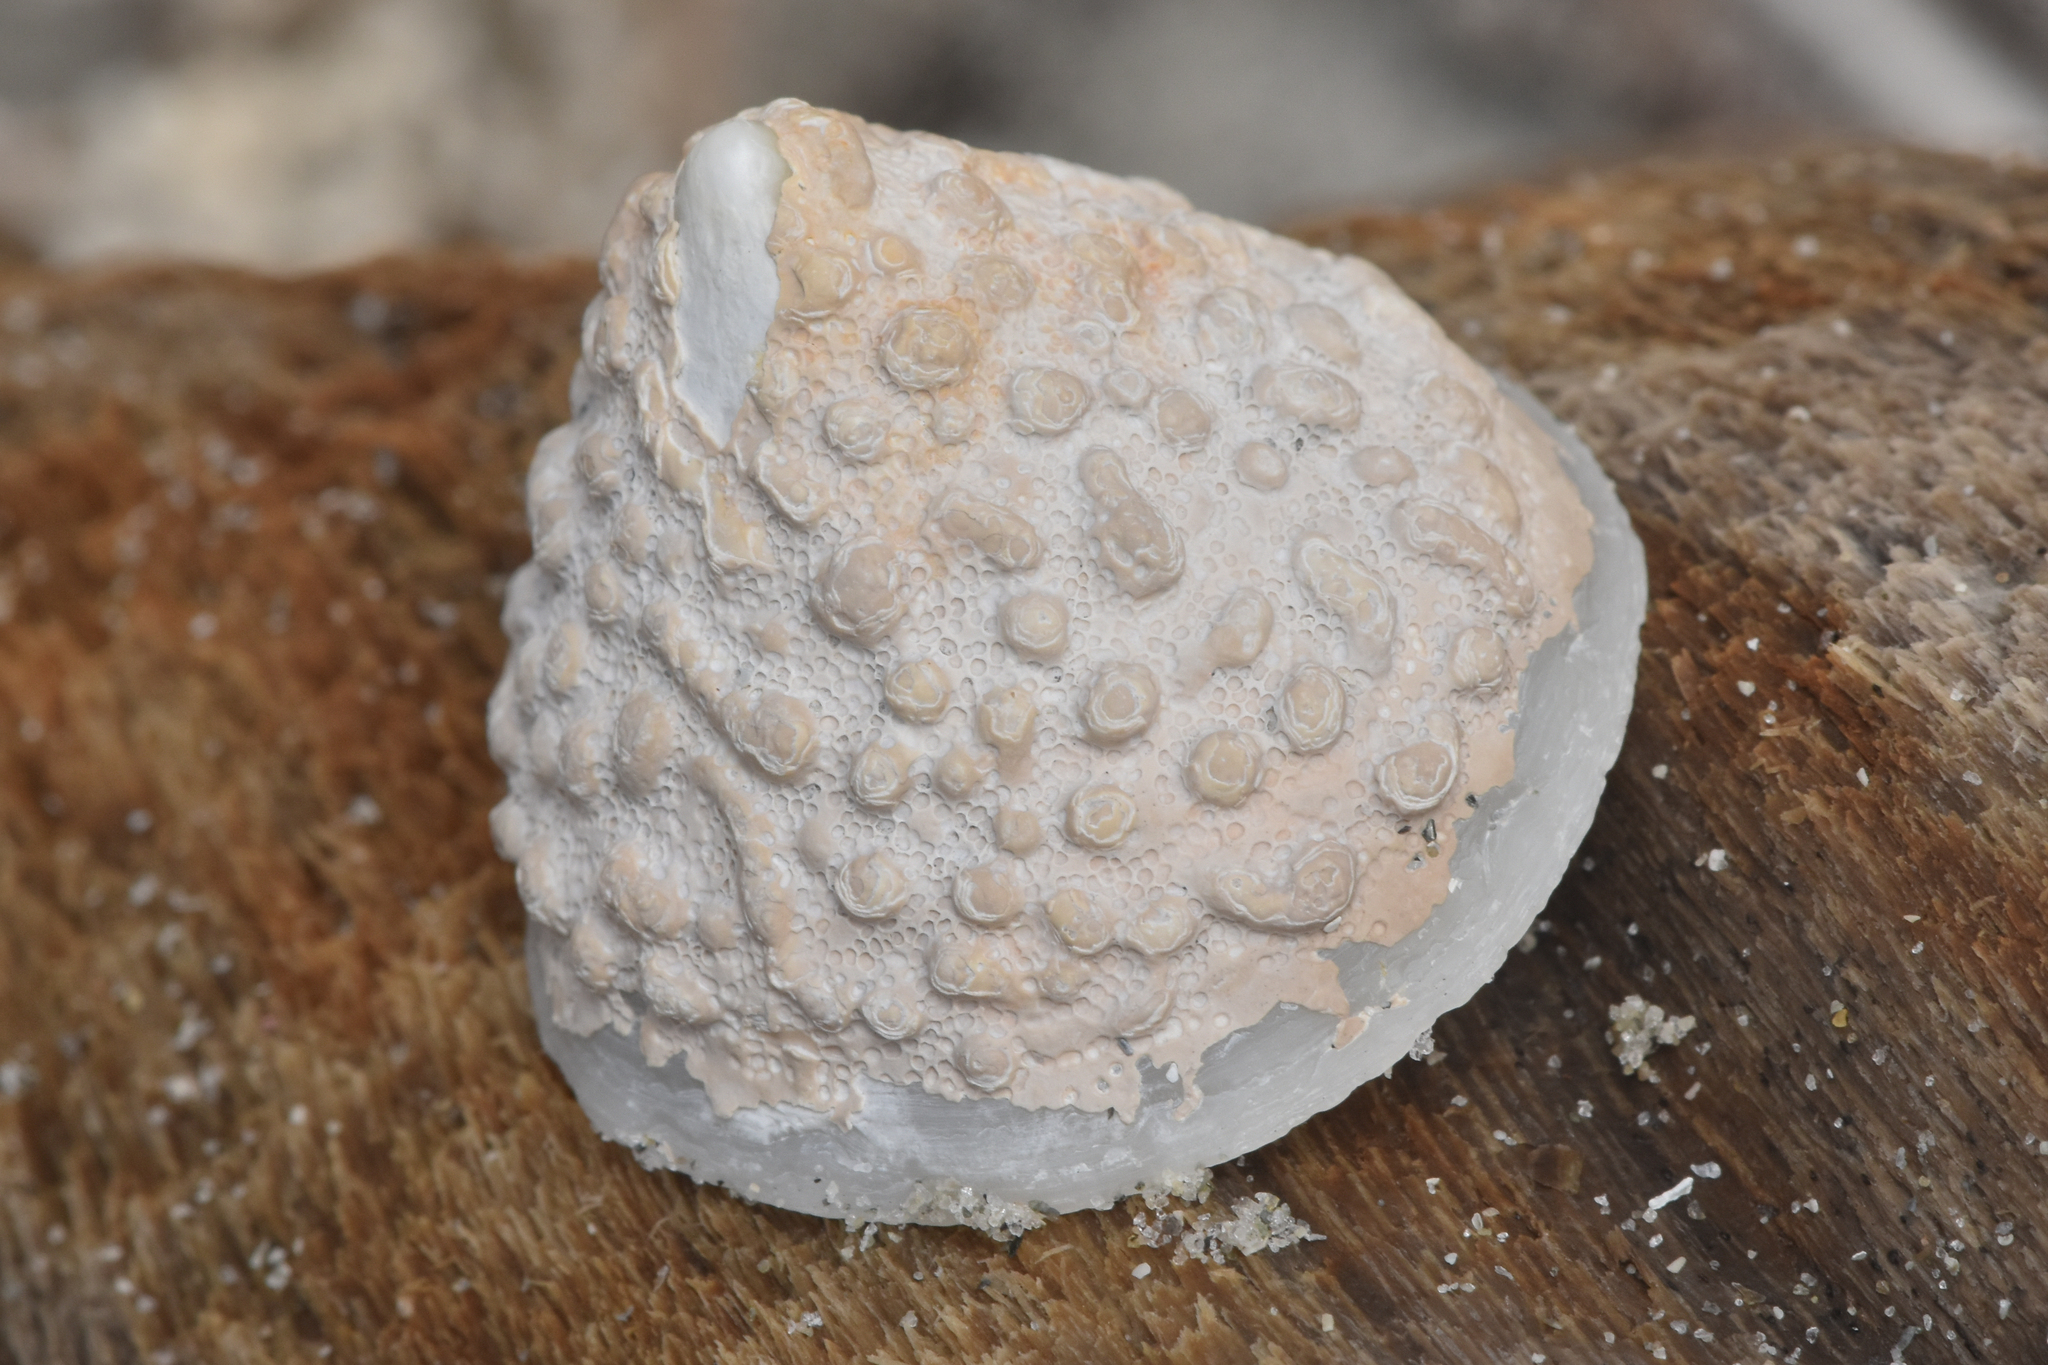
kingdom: Animalia
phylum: Mollusca
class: Gastropoda
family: Acmaeidae
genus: Acmaea
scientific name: Acmaea mitra
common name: Pacific white cap limpet
